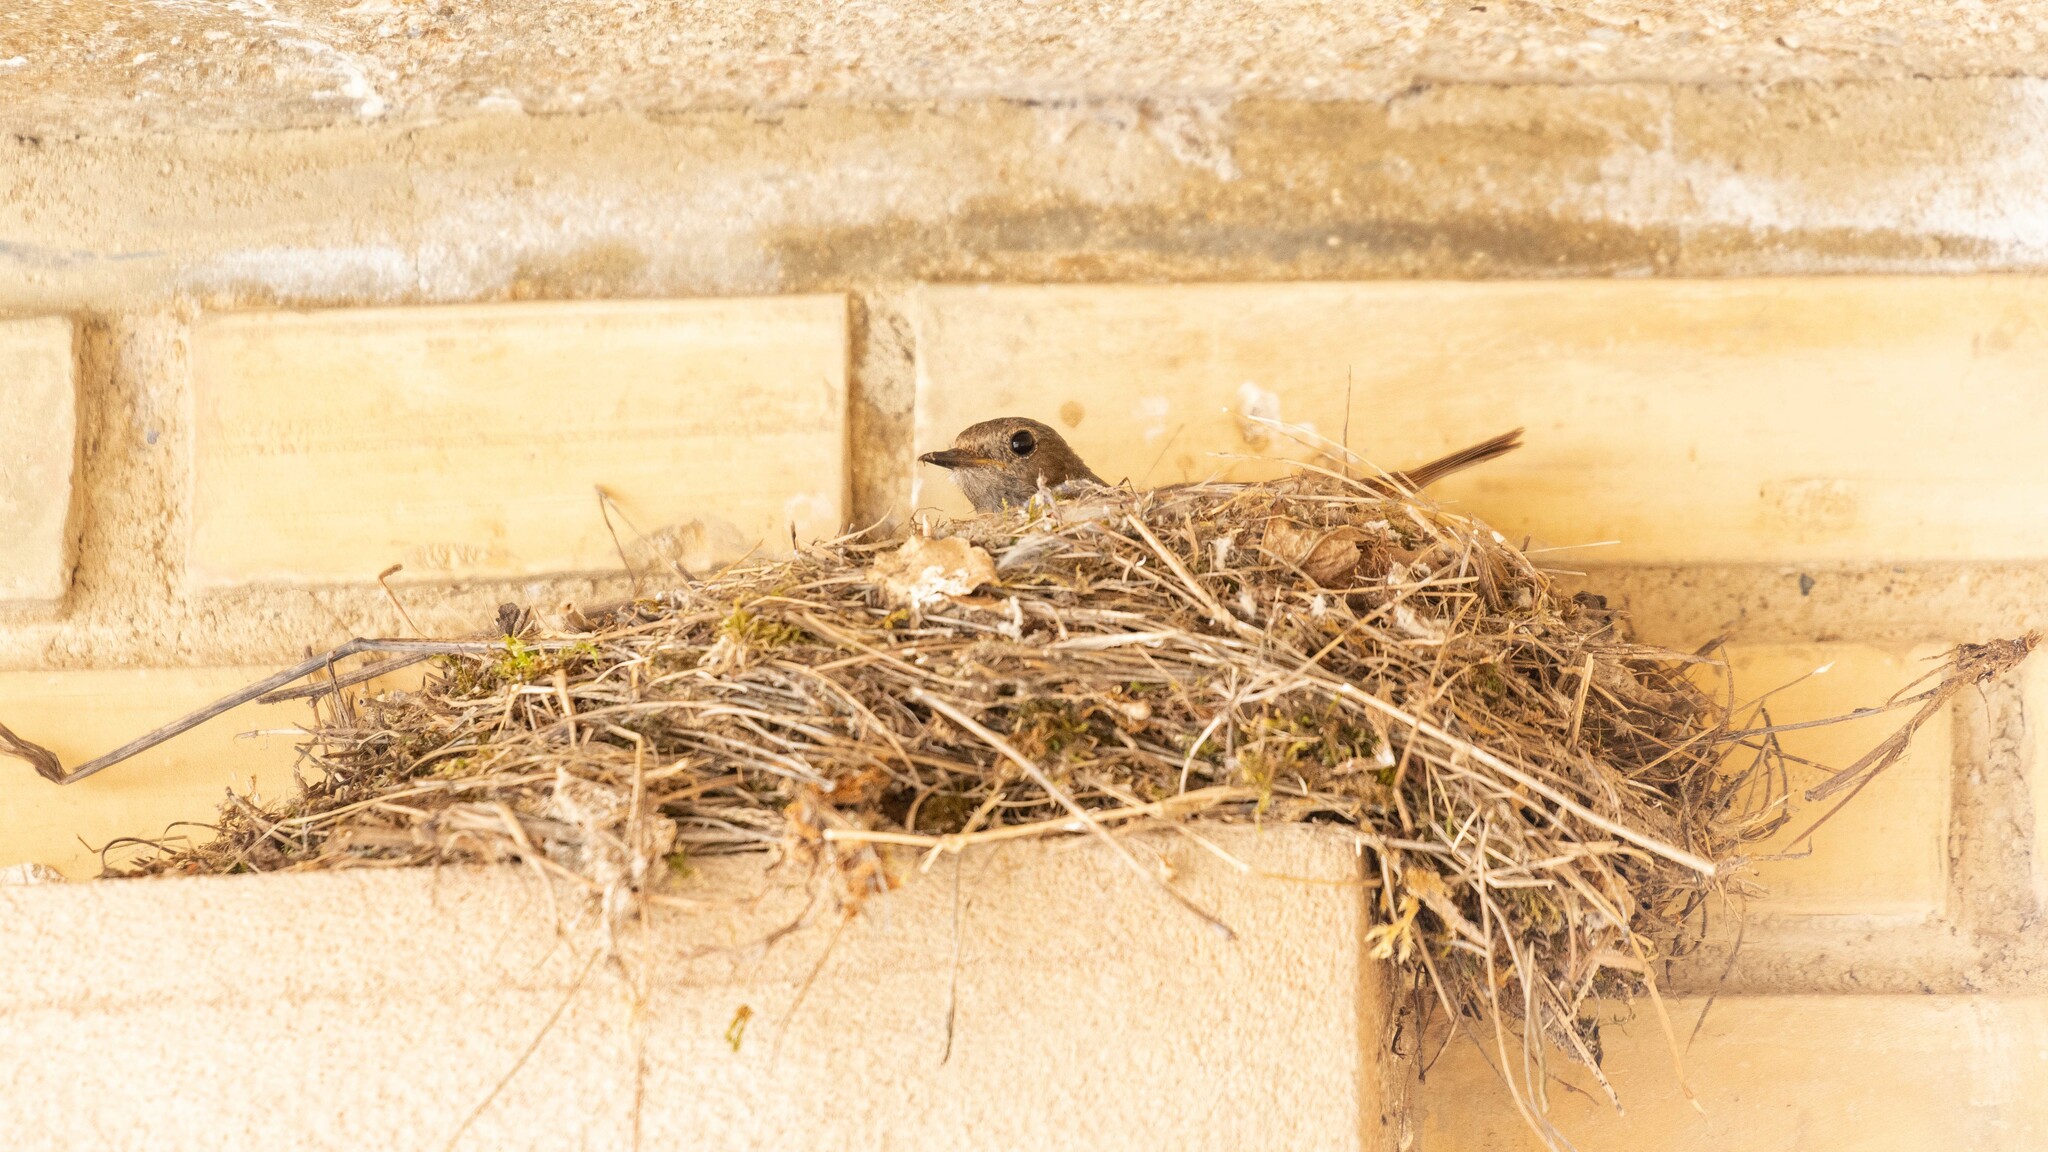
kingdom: Animalia
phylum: Chordata
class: Aves
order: Passeriformes
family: Muscicapidae
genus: Phoenicurus
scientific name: Phoenicurus ochruros
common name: Black redstart
